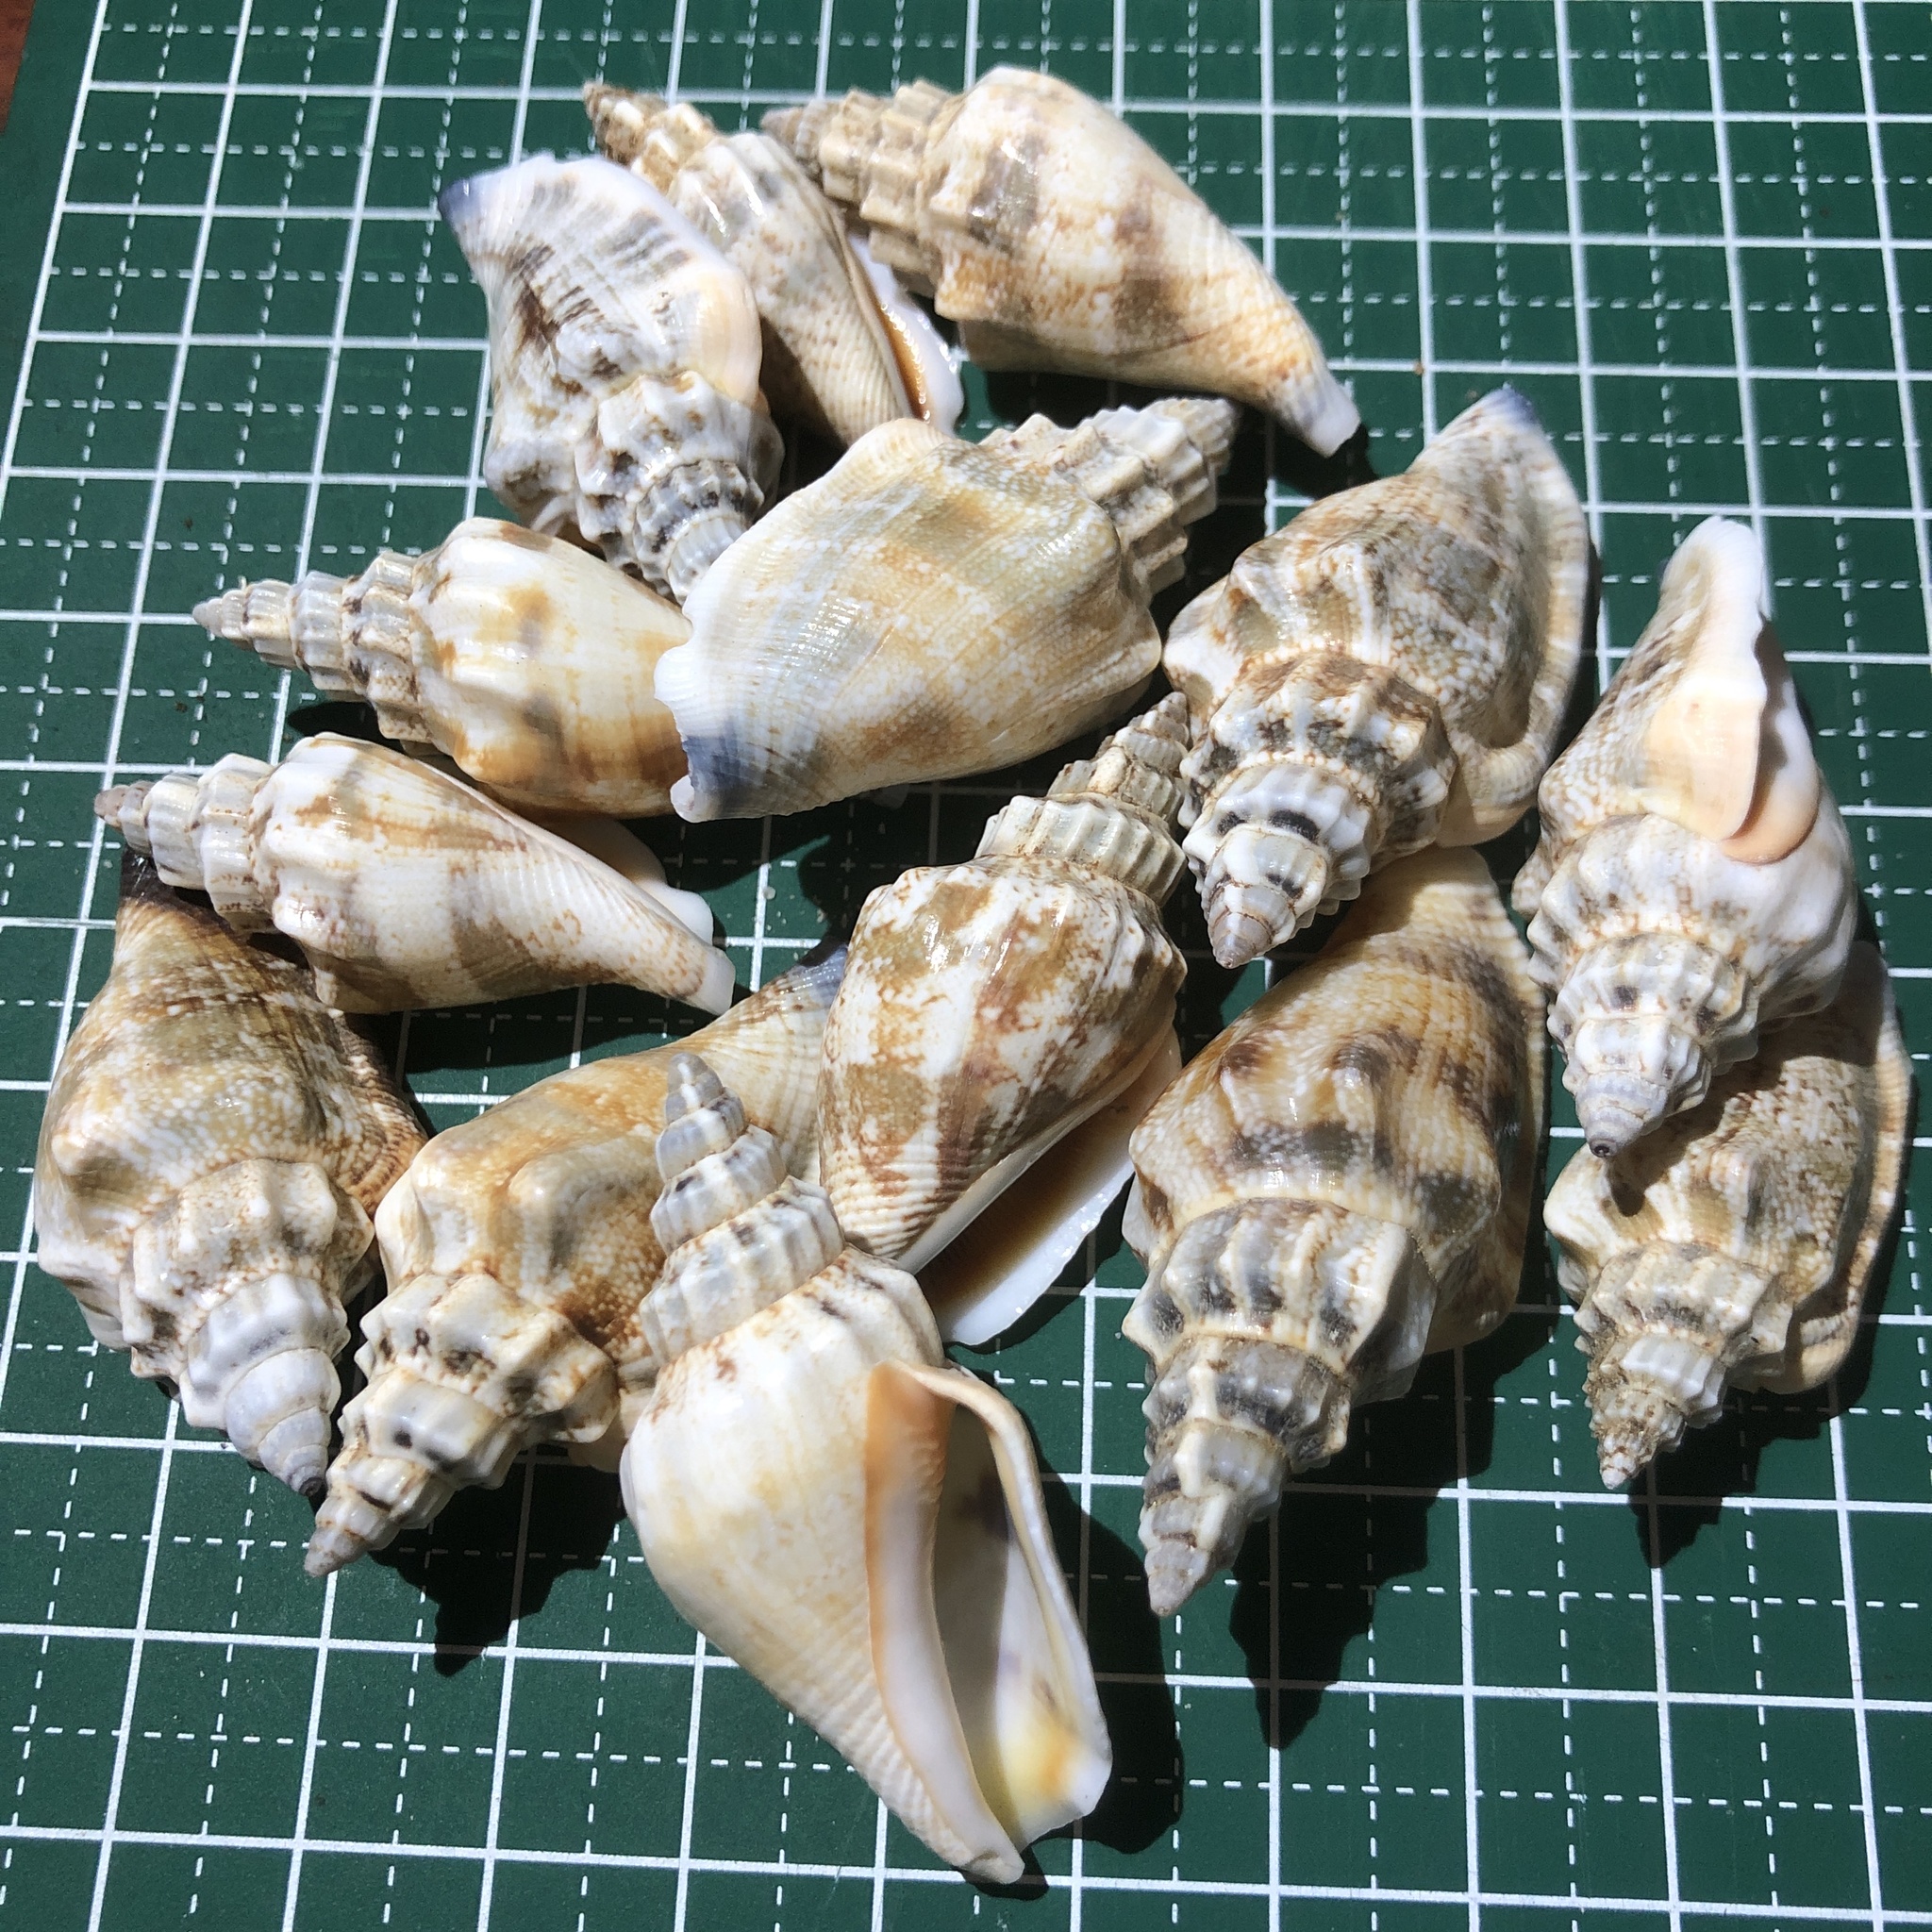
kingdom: Animalia
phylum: Mollusca
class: Gastropoda
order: Littorinimorpha
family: Strombidae
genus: Canarium
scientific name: Canarium urceus
